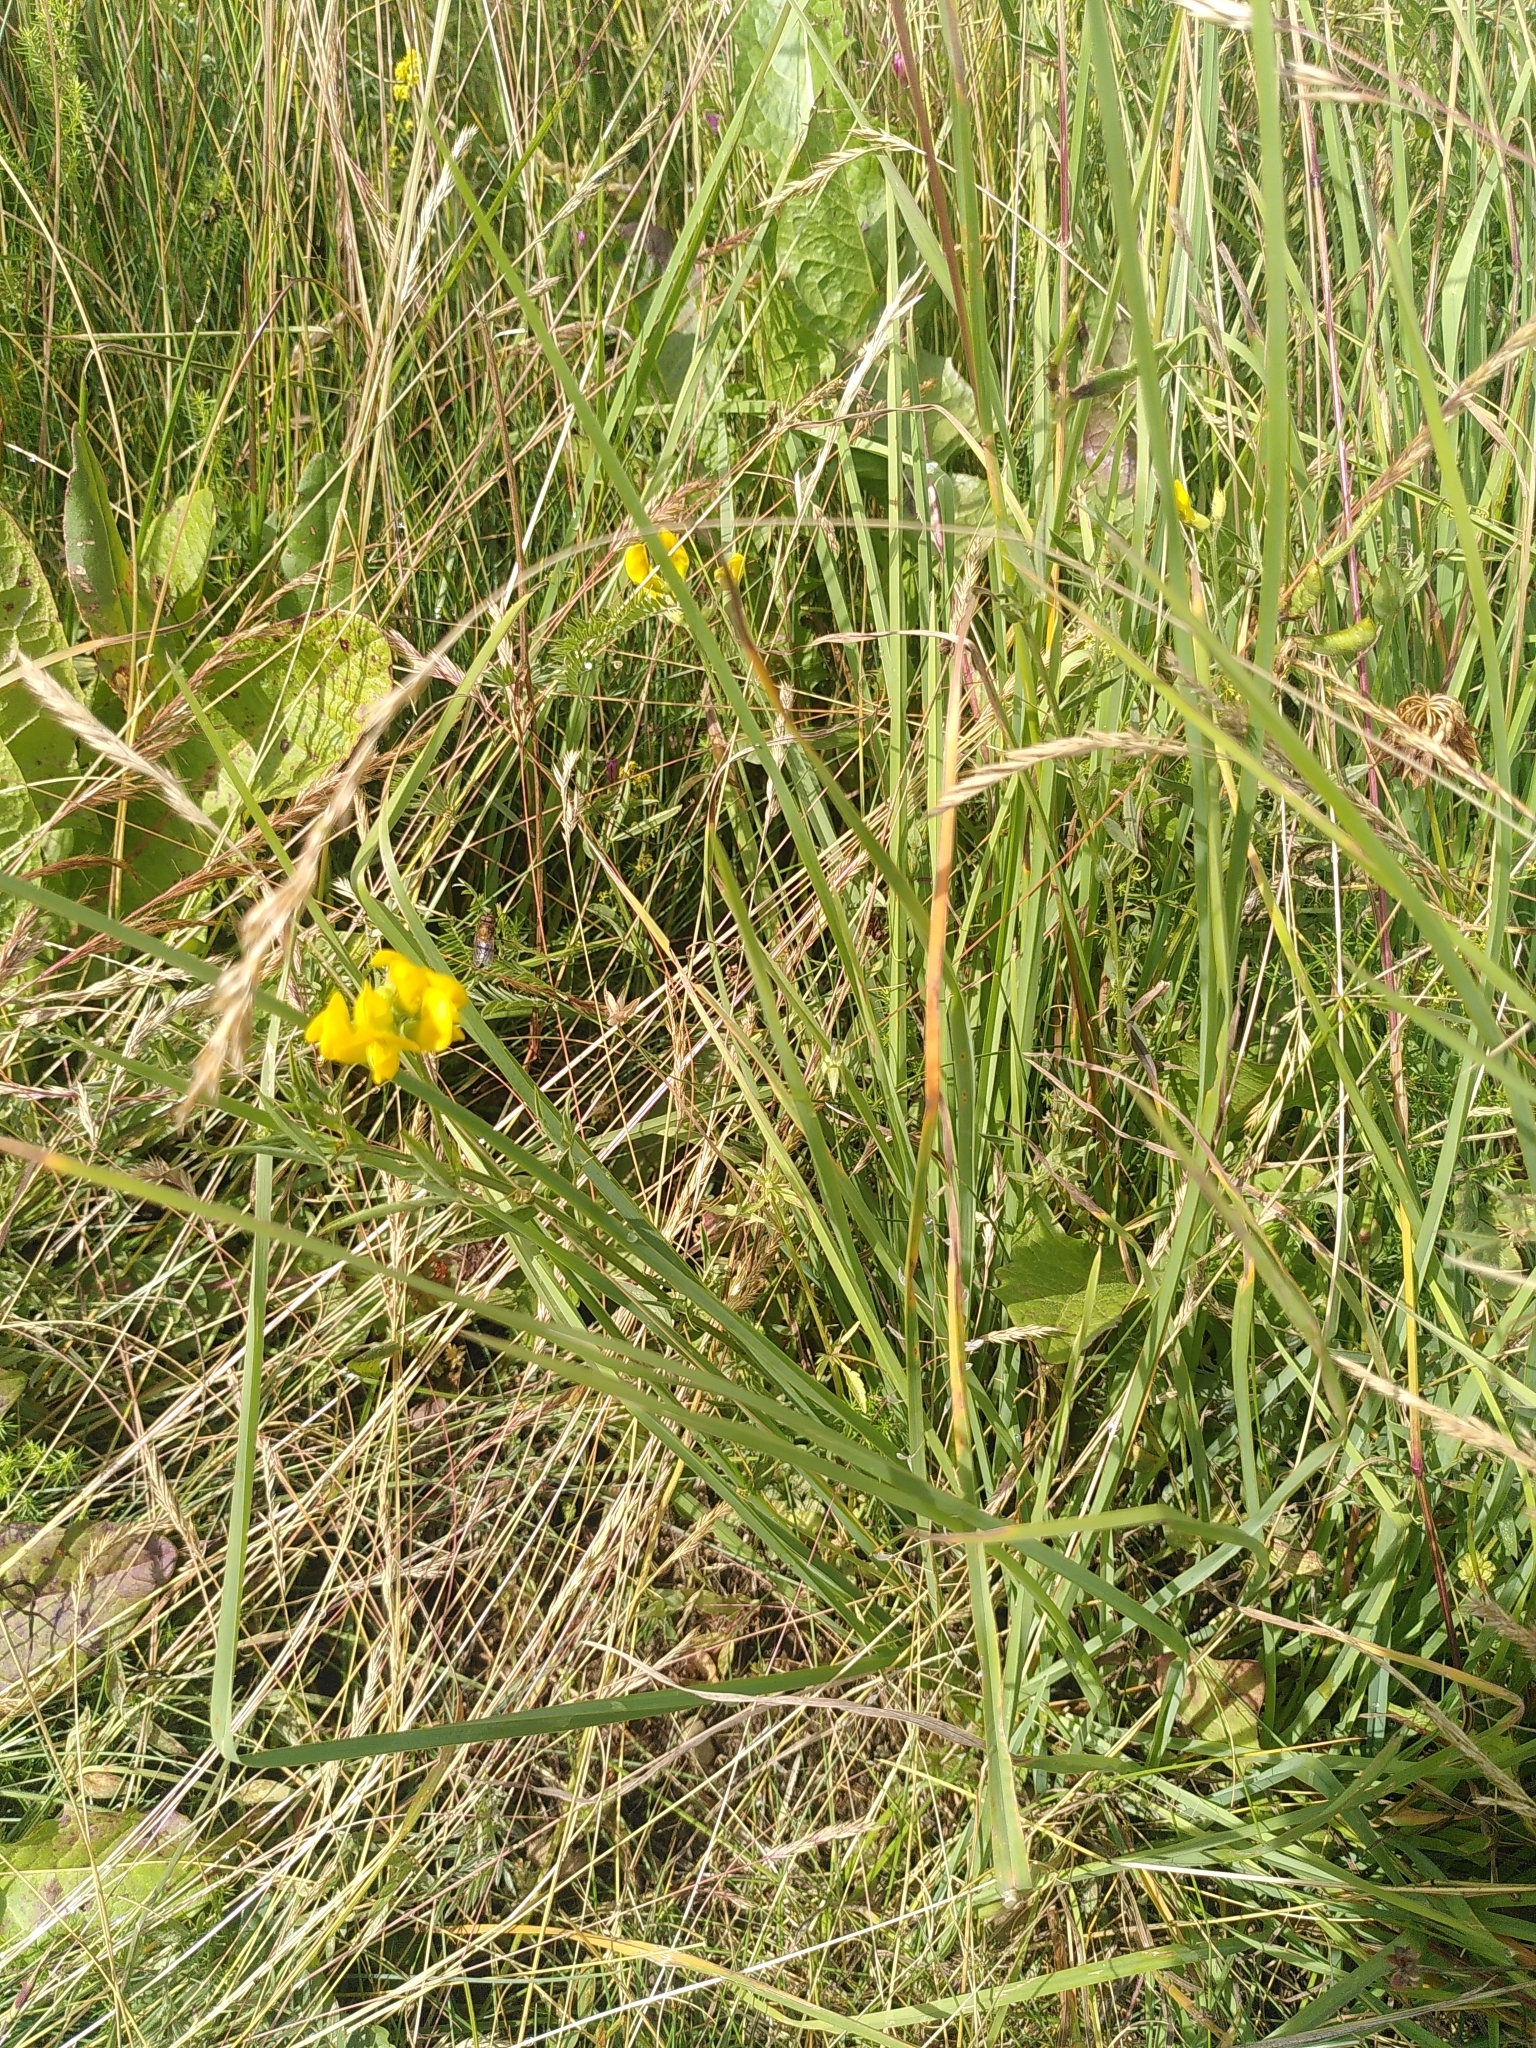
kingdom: Plantae
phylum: Tracheophyta
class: Magnoliopsida
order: Fabales
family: Fabaceae
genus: Lathyrus
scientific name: Lathyrus pratensis
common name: Meadow vetchling
